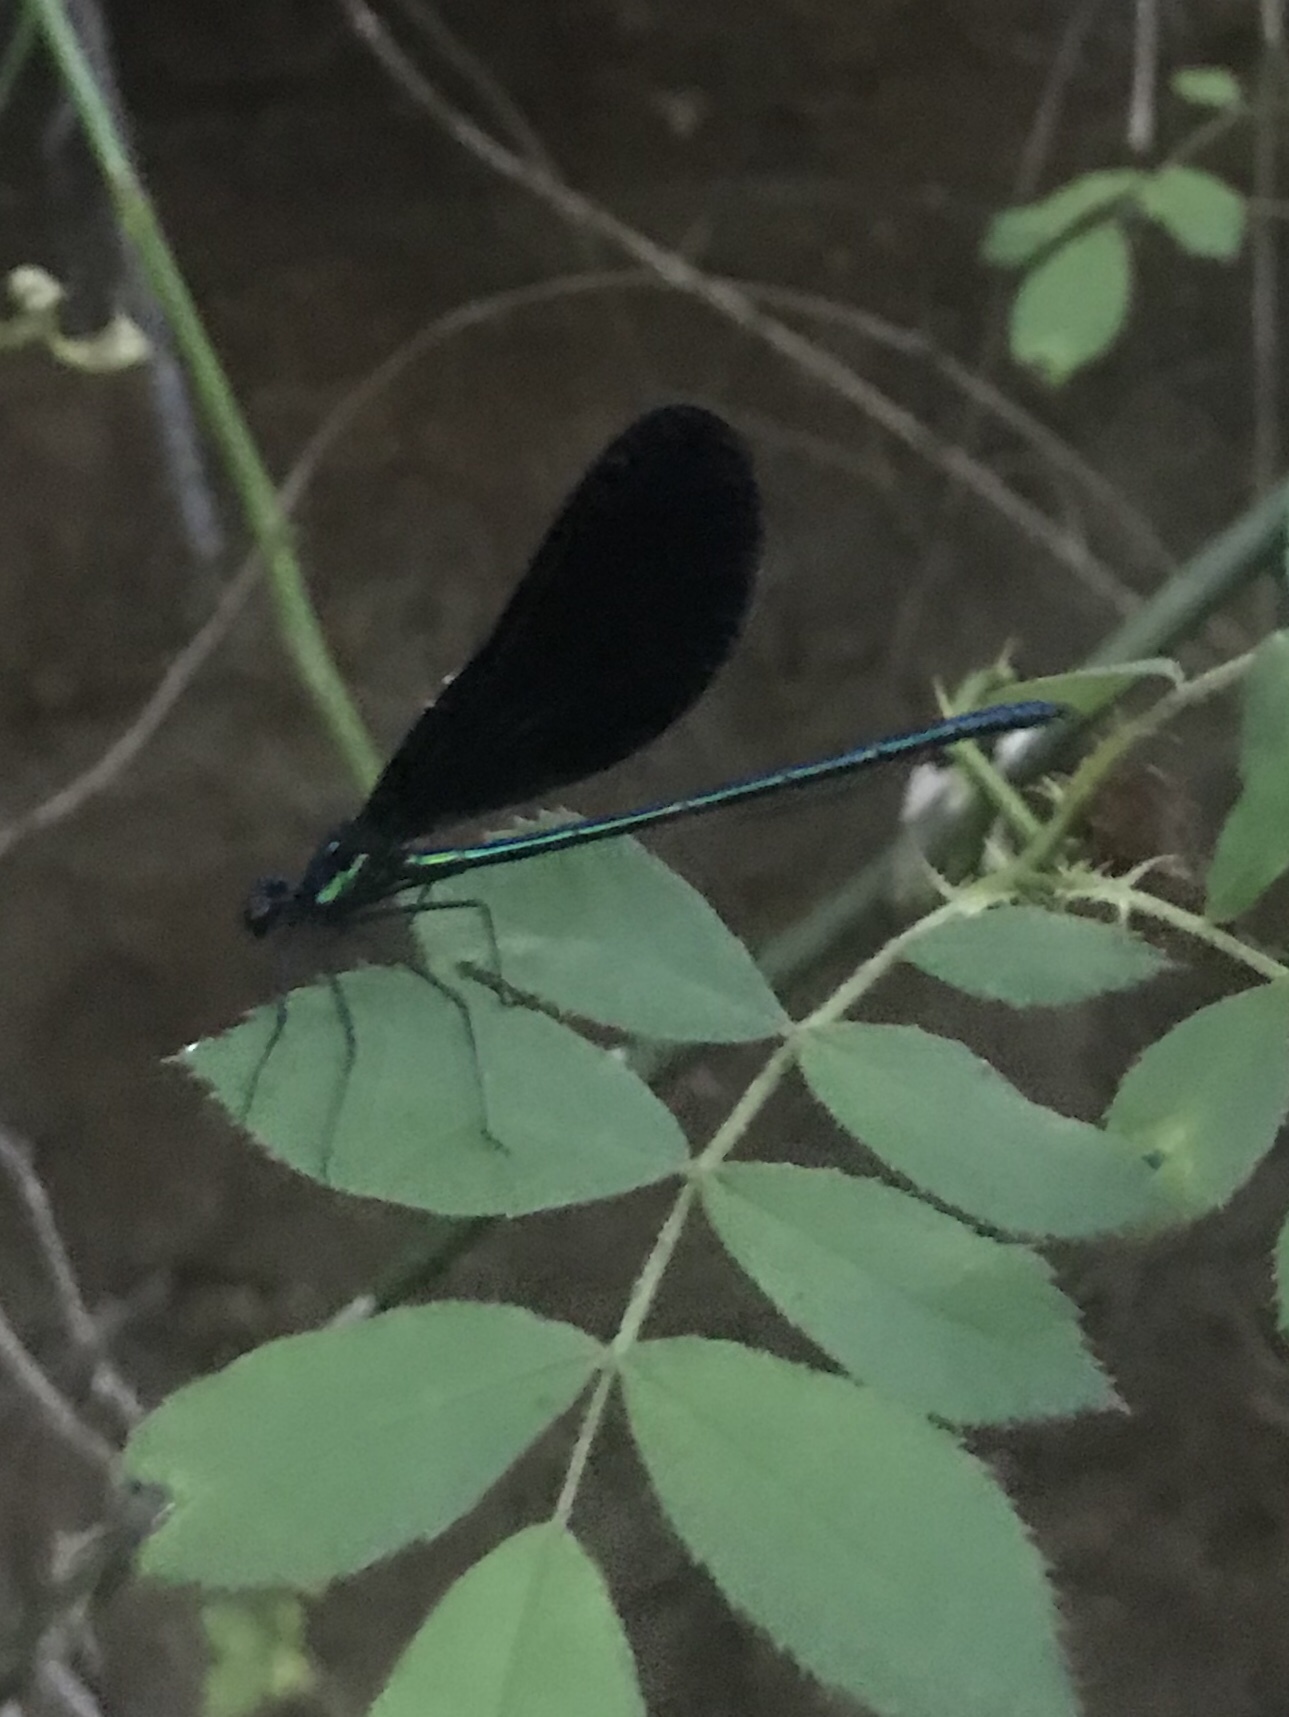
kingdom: Animalia
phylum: Arthropoda
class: Insecta
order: Odonata
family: Calopterygidae
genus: Calopteryx
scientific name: Calopteryx maculata
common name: Ebony jewelwing
